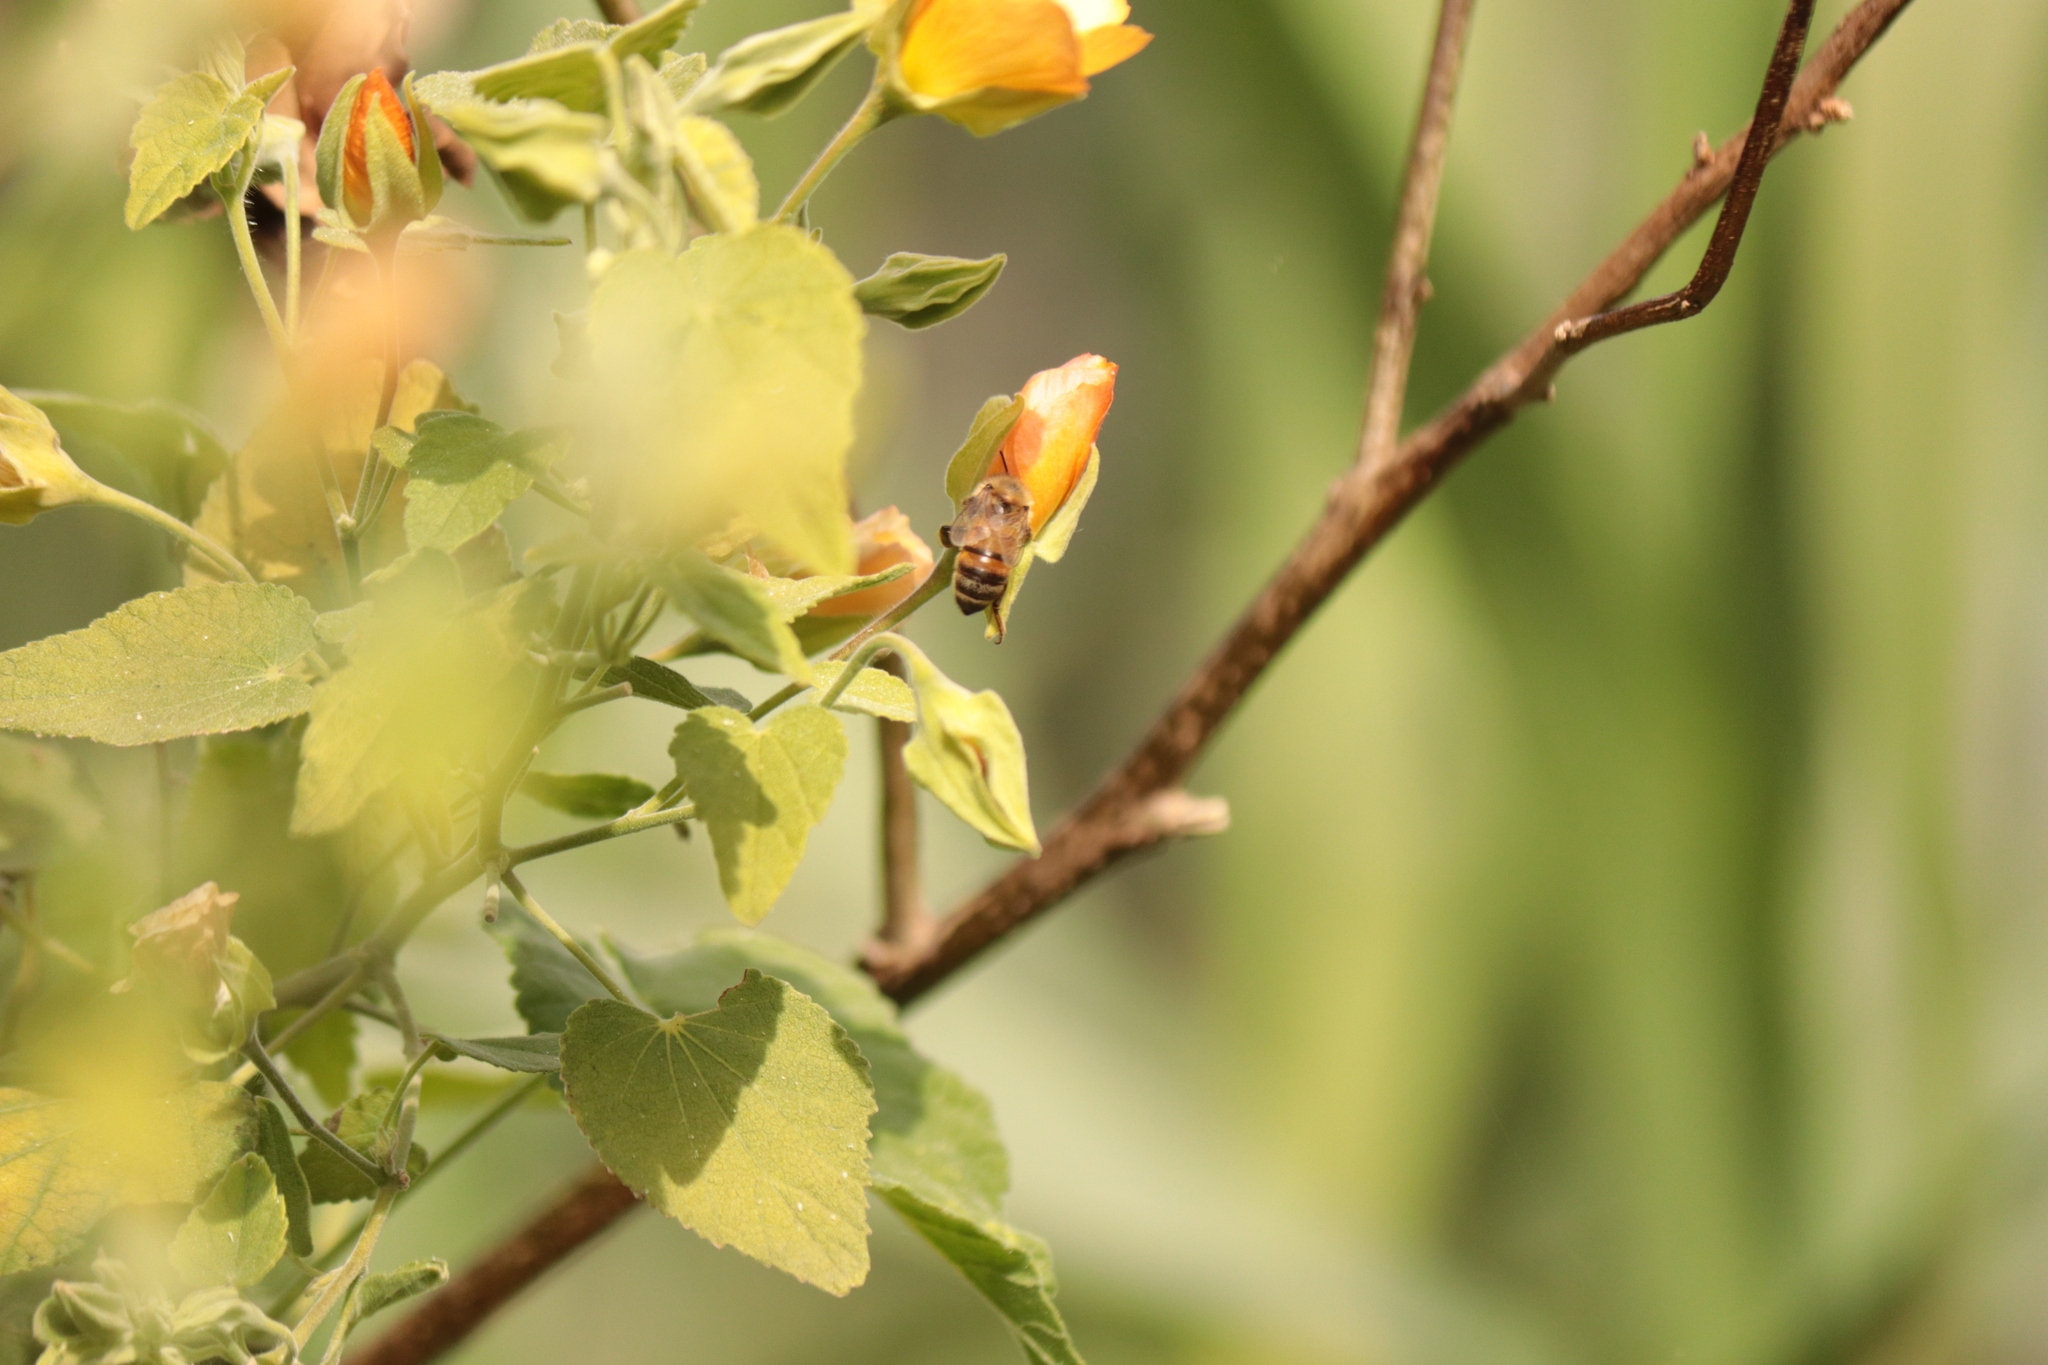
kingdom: Animalia
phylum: Arthropoda
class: Insecta
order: Hymenoptera
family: Apidae
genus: Apis
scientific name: Apis mellifera
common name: Honey bee
